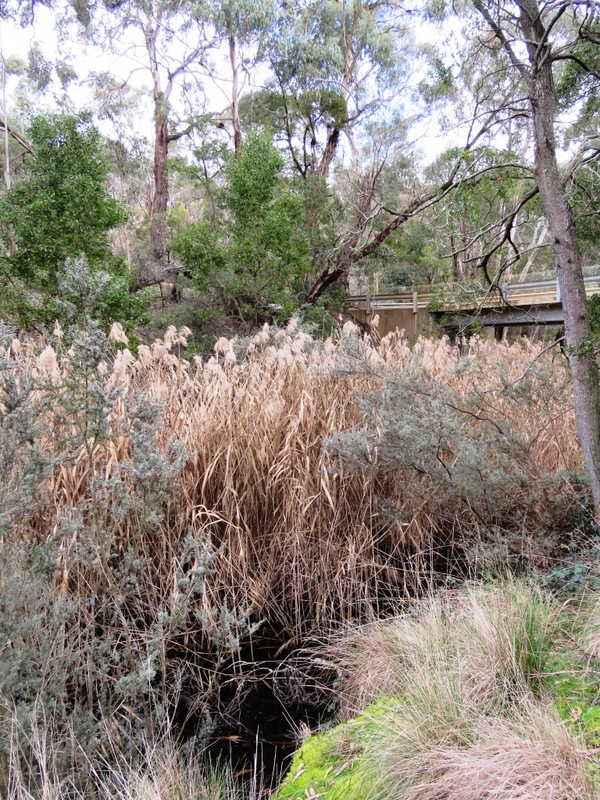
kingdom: Plantae
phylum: Tracheophyta
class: Liliopsida
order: Poales
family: Poaceae
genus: Phragmites
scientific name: Phragmites australis
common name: Common reed
